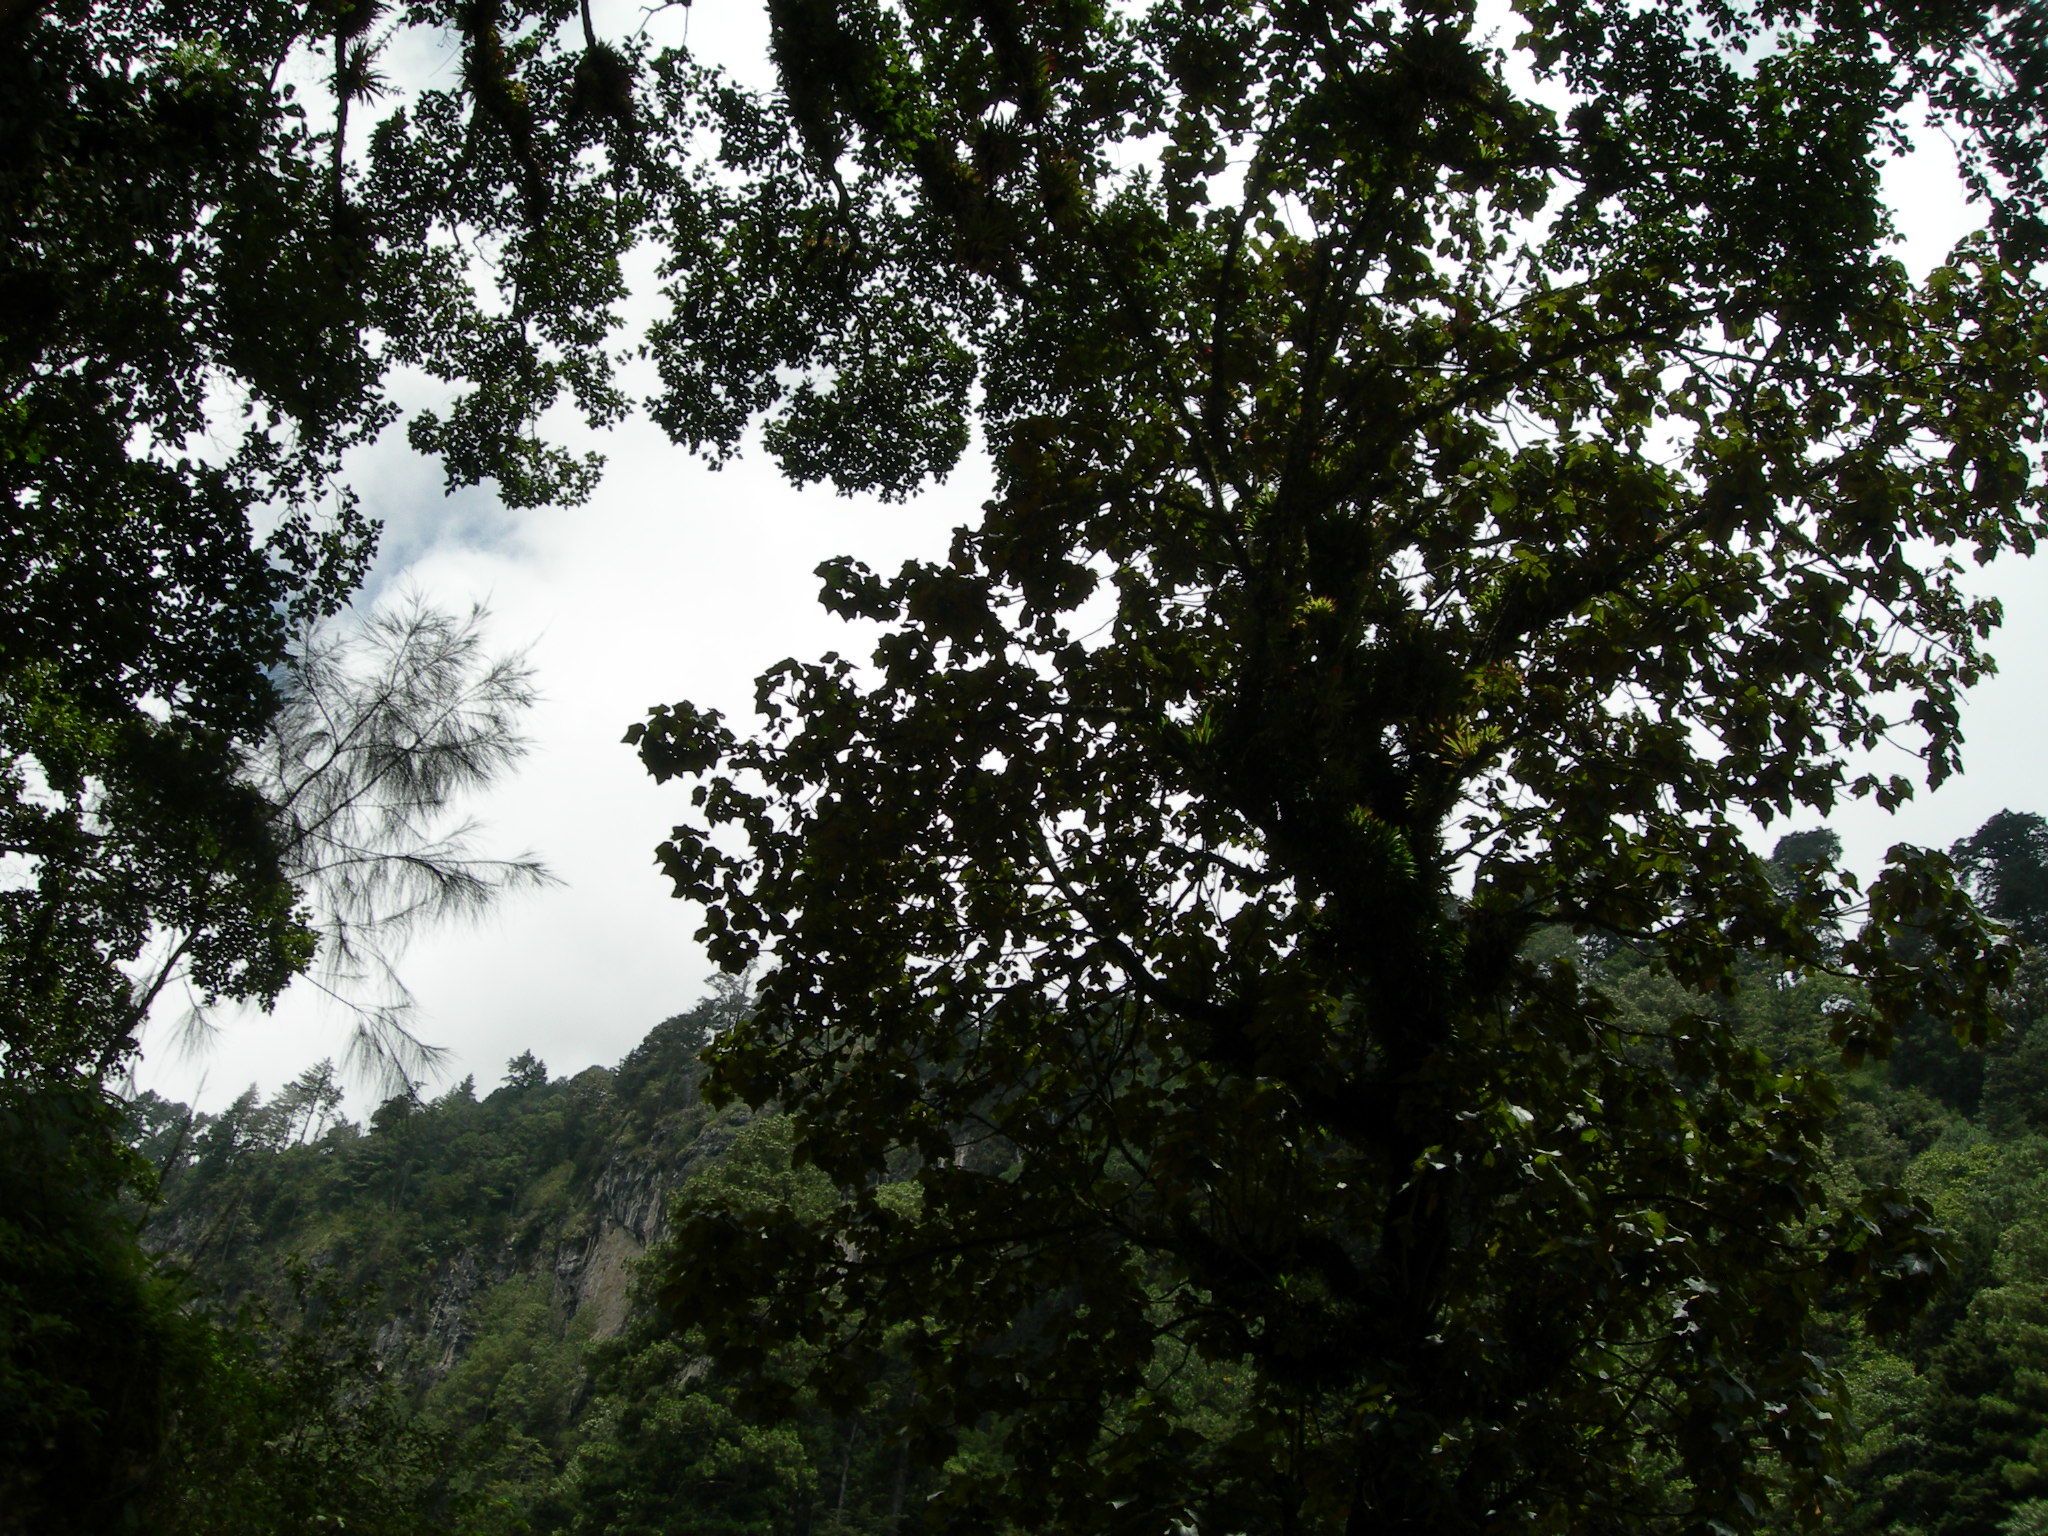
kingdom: Plantae
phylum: Tracheophyta
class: Magnoliopsida
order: Malvales
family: Malvaceae
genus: Chiranthodendron
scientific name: Chiranthodendron pentadactylon
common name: Mexican-hat-plant
